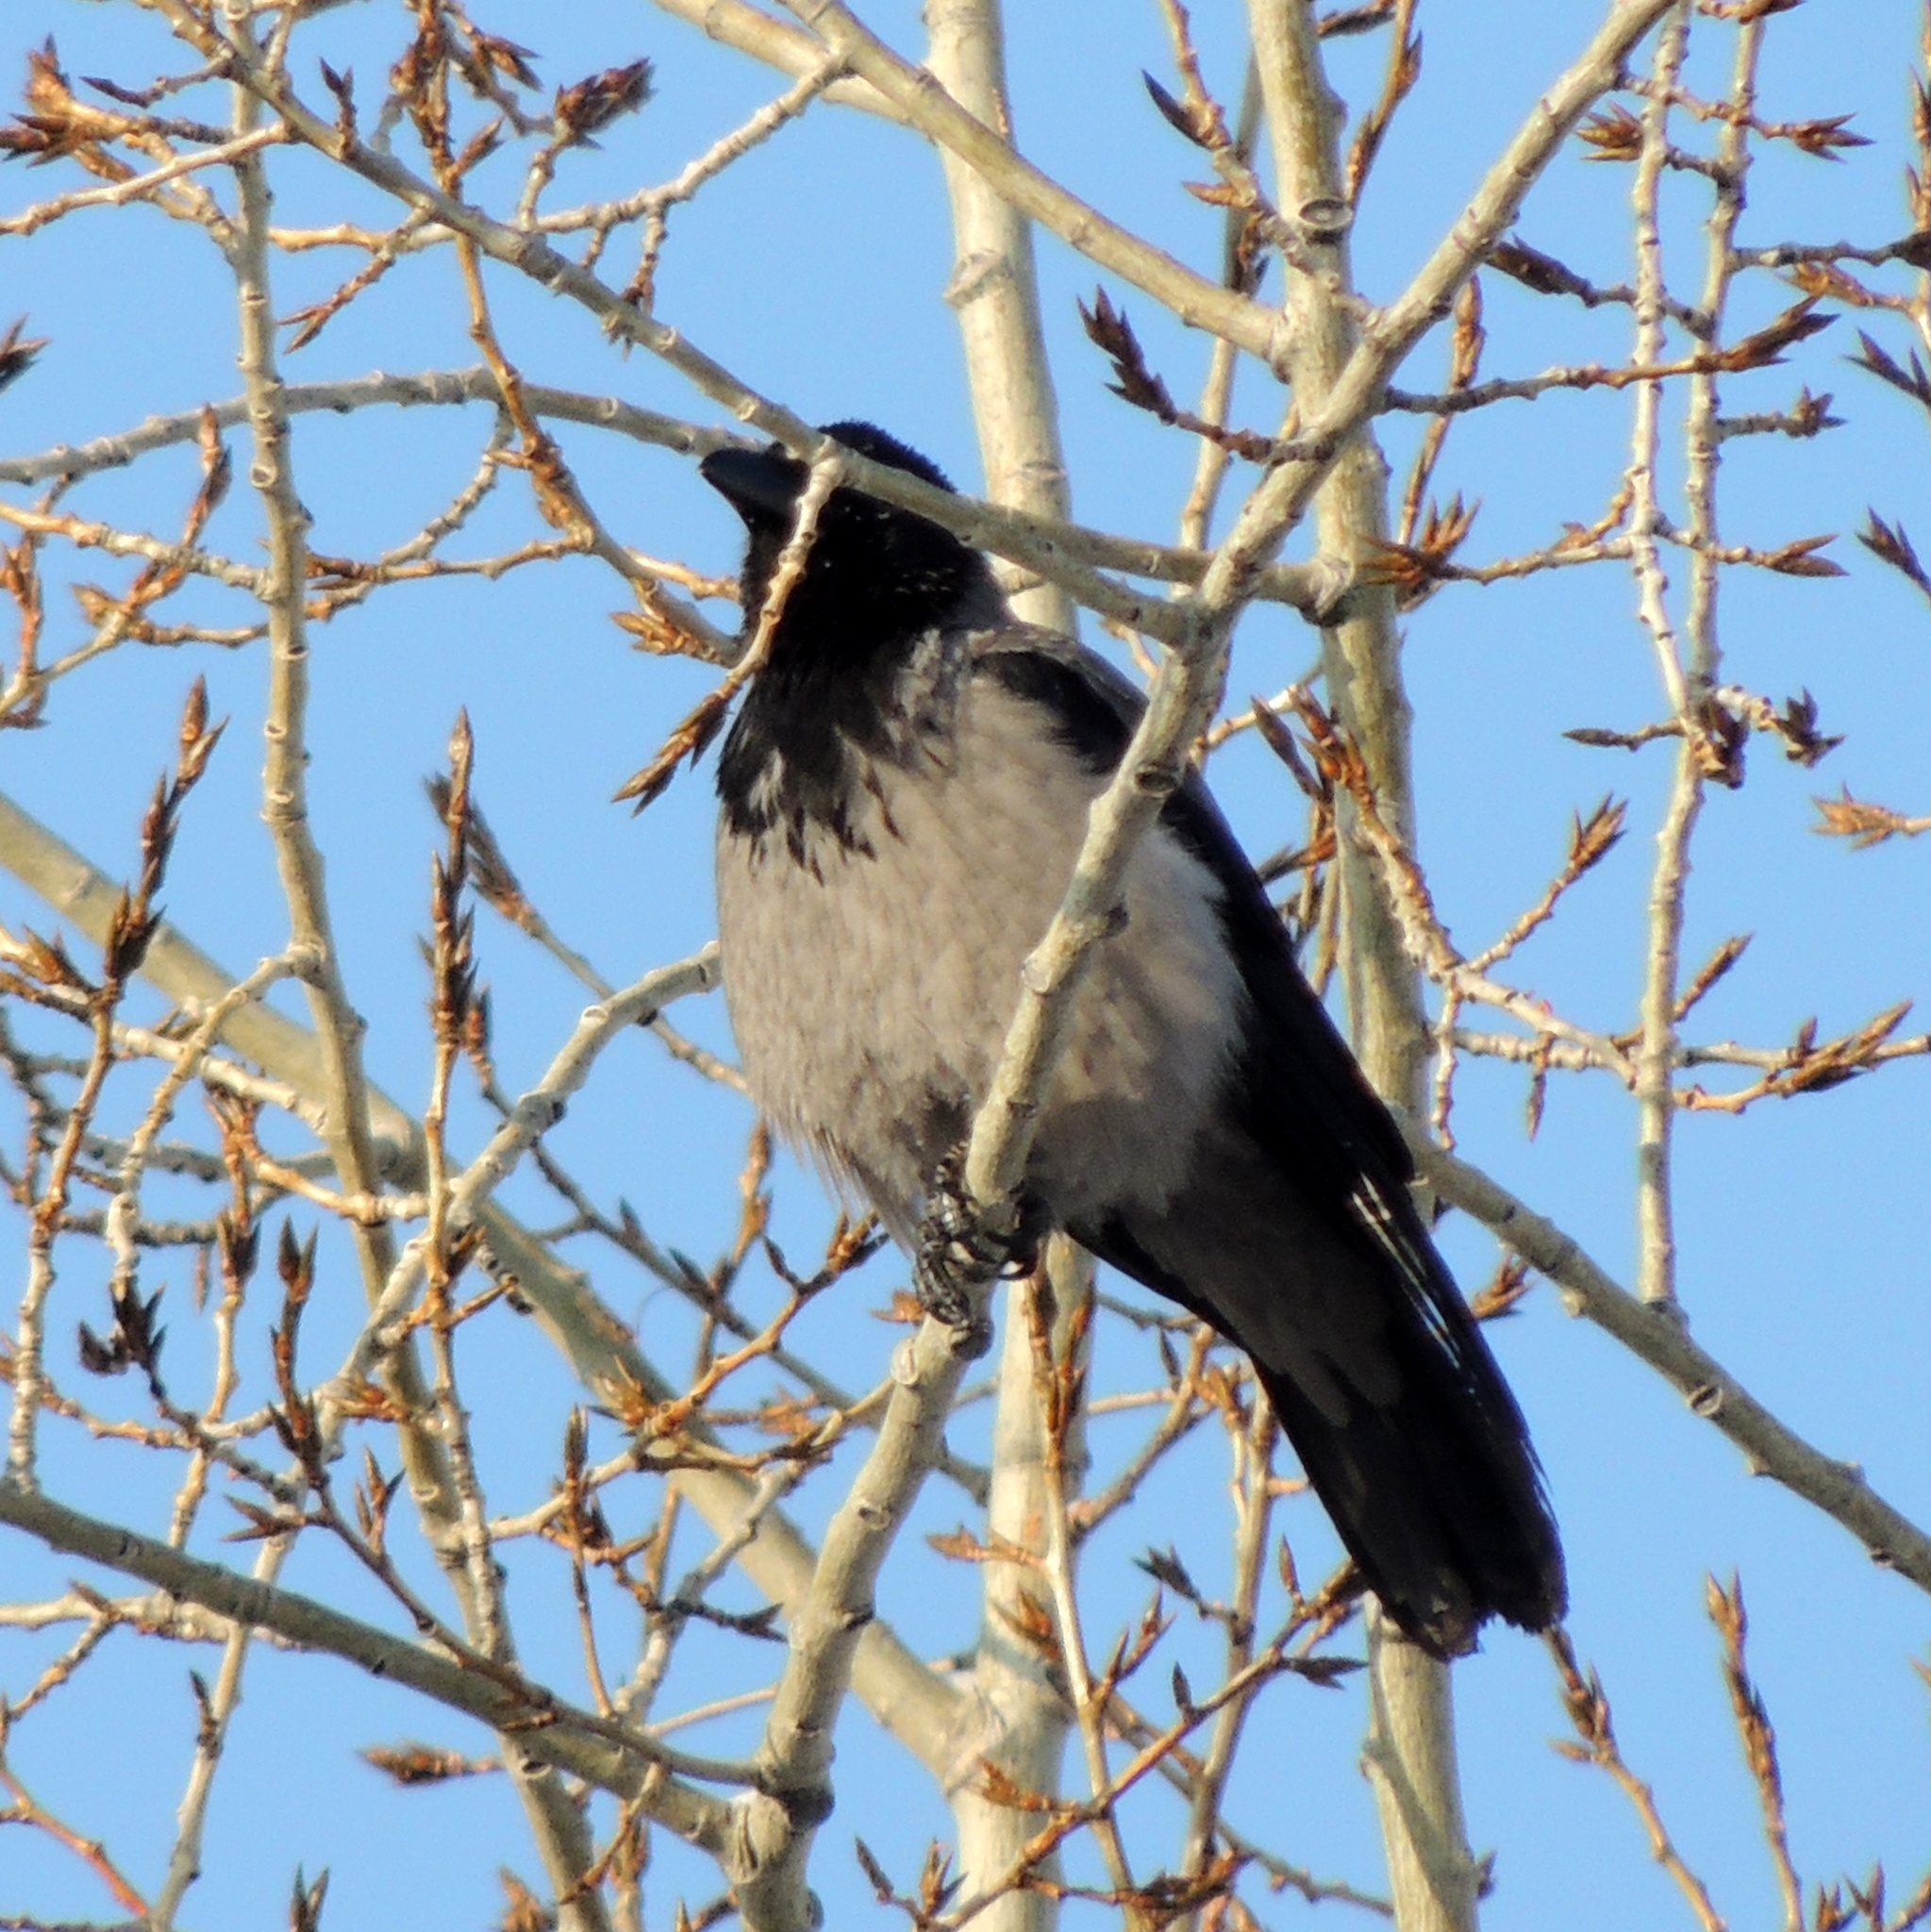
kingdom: Animalia
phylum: Chordata
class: Aves
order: Passeriformes
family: Corvidae
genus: Corvus
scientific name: Corvus cornix
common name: Hooded crow
